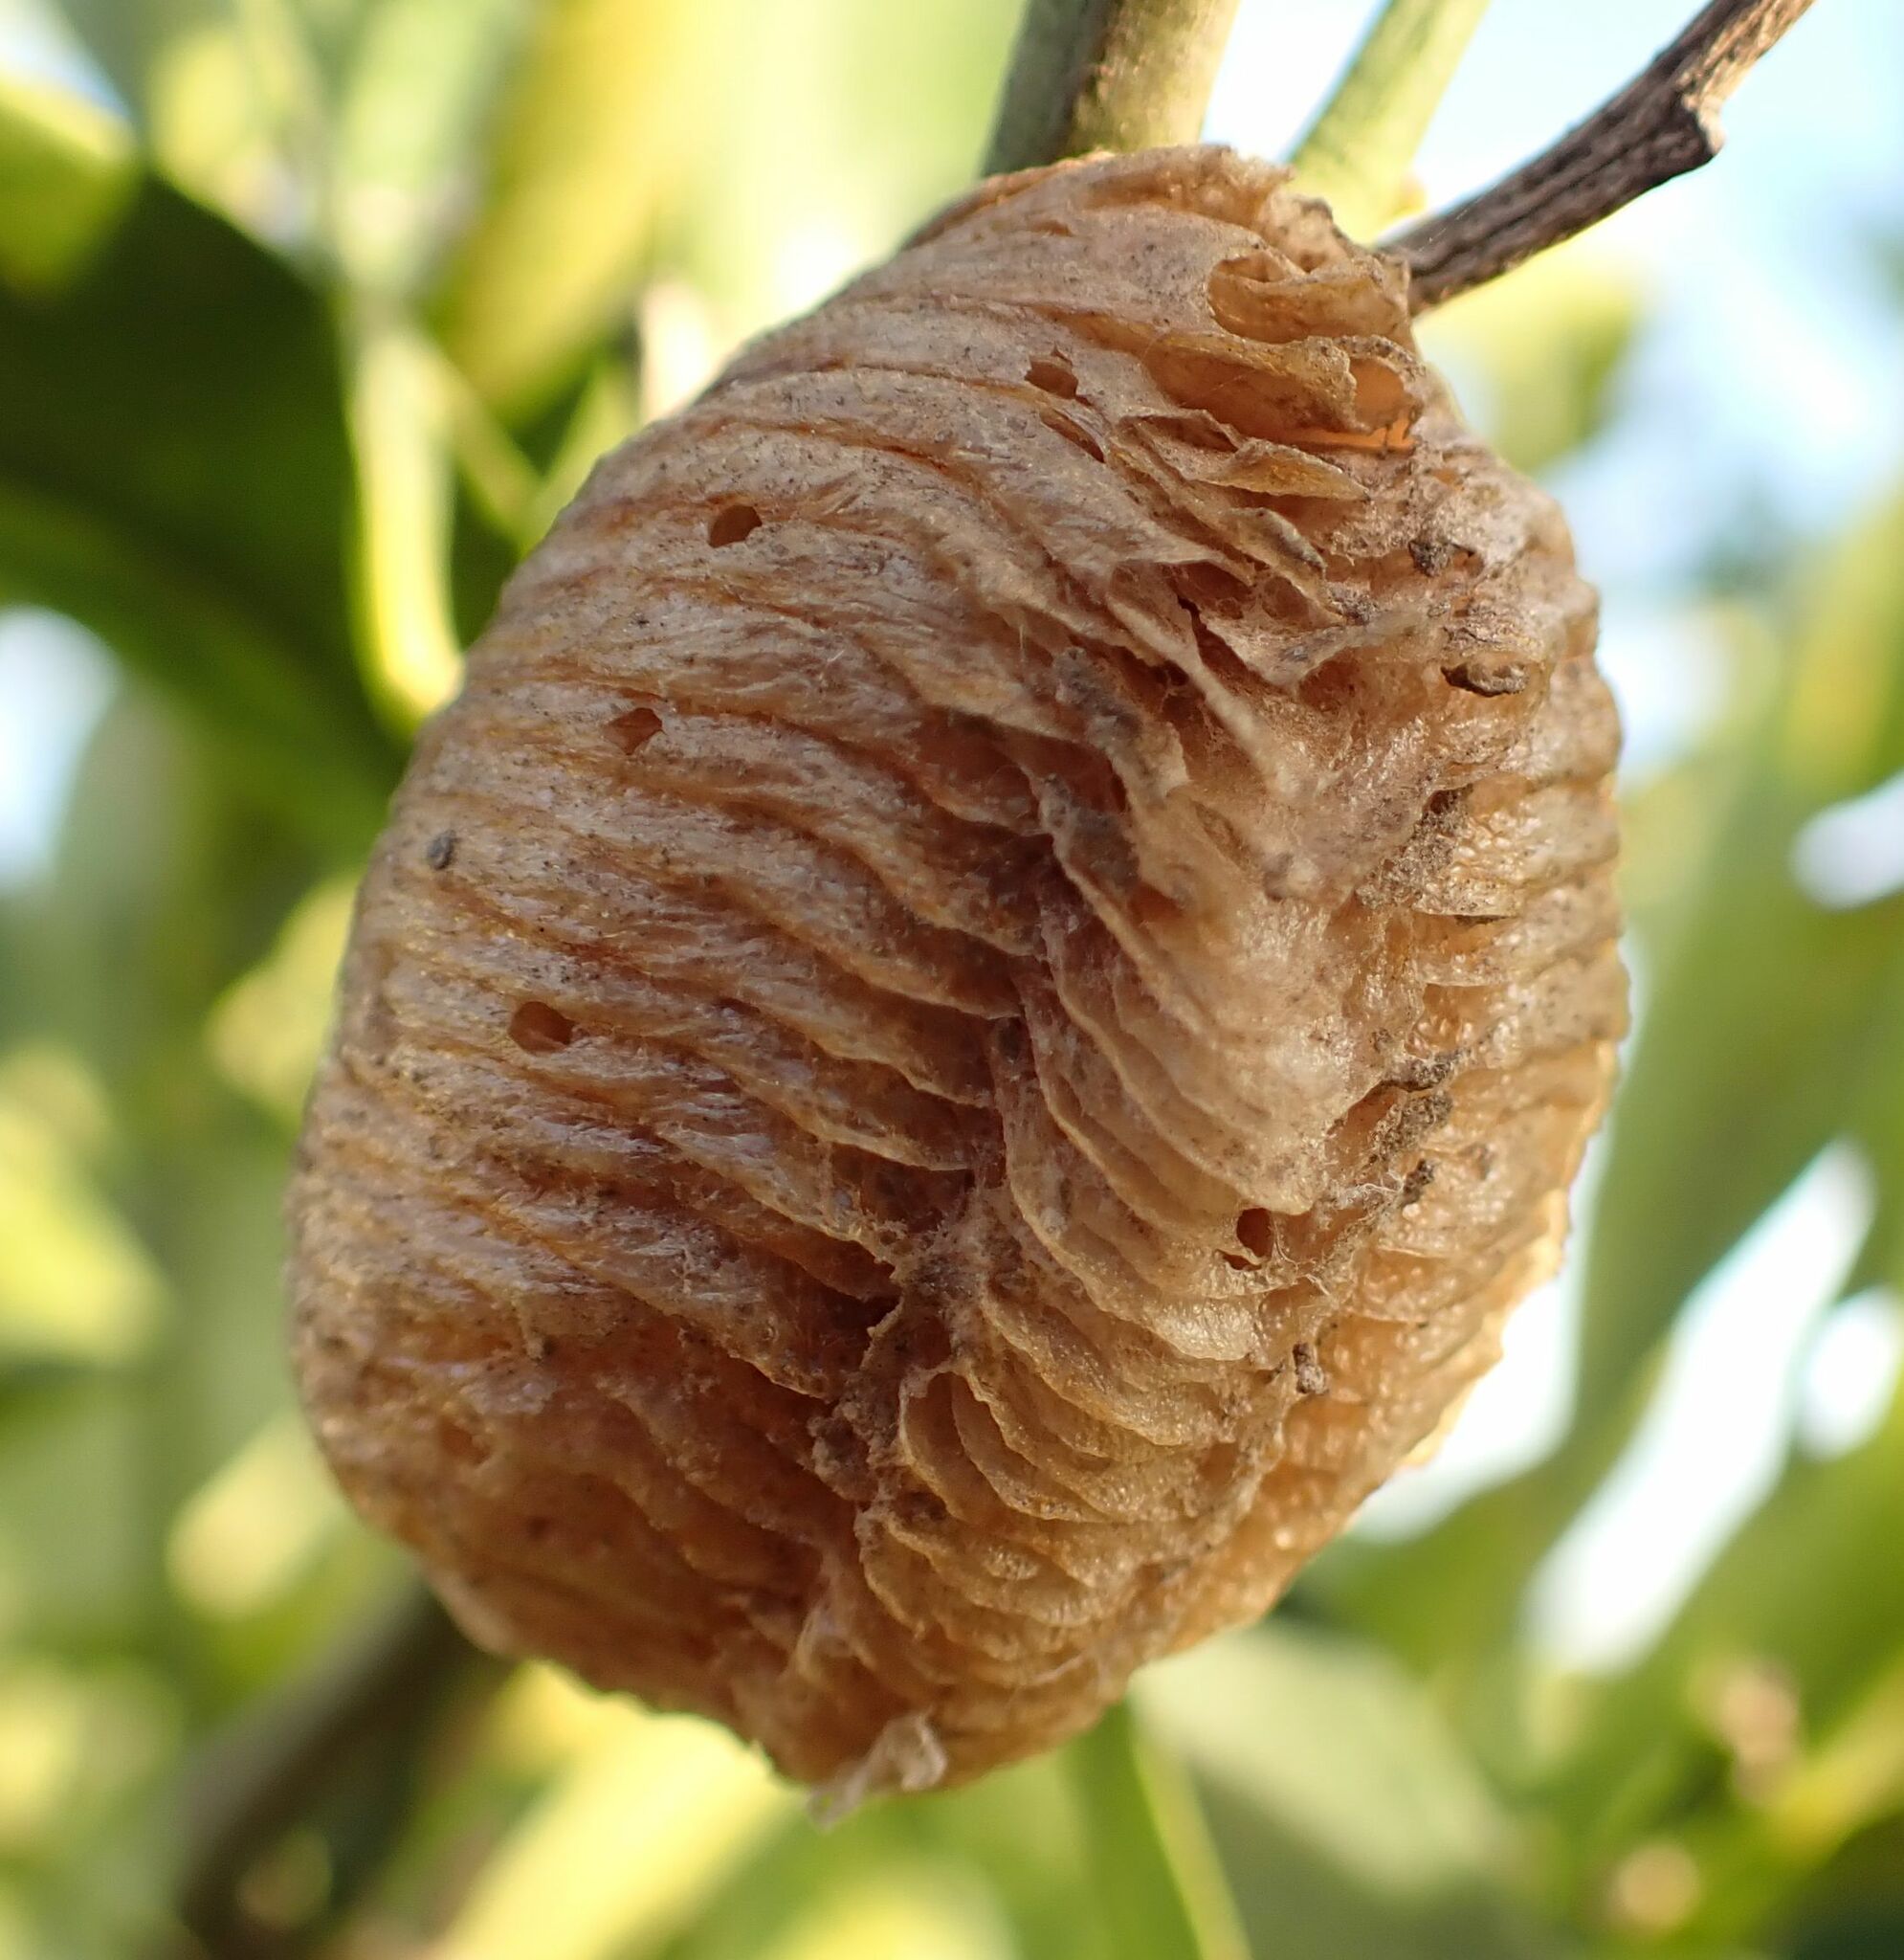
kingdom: Animalia
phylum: Arthropoda
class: Insecta
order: Mantodea
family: Mantidae
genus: Sphodromantis
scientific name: Sphodromantis viridis
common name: Giant african mantis
